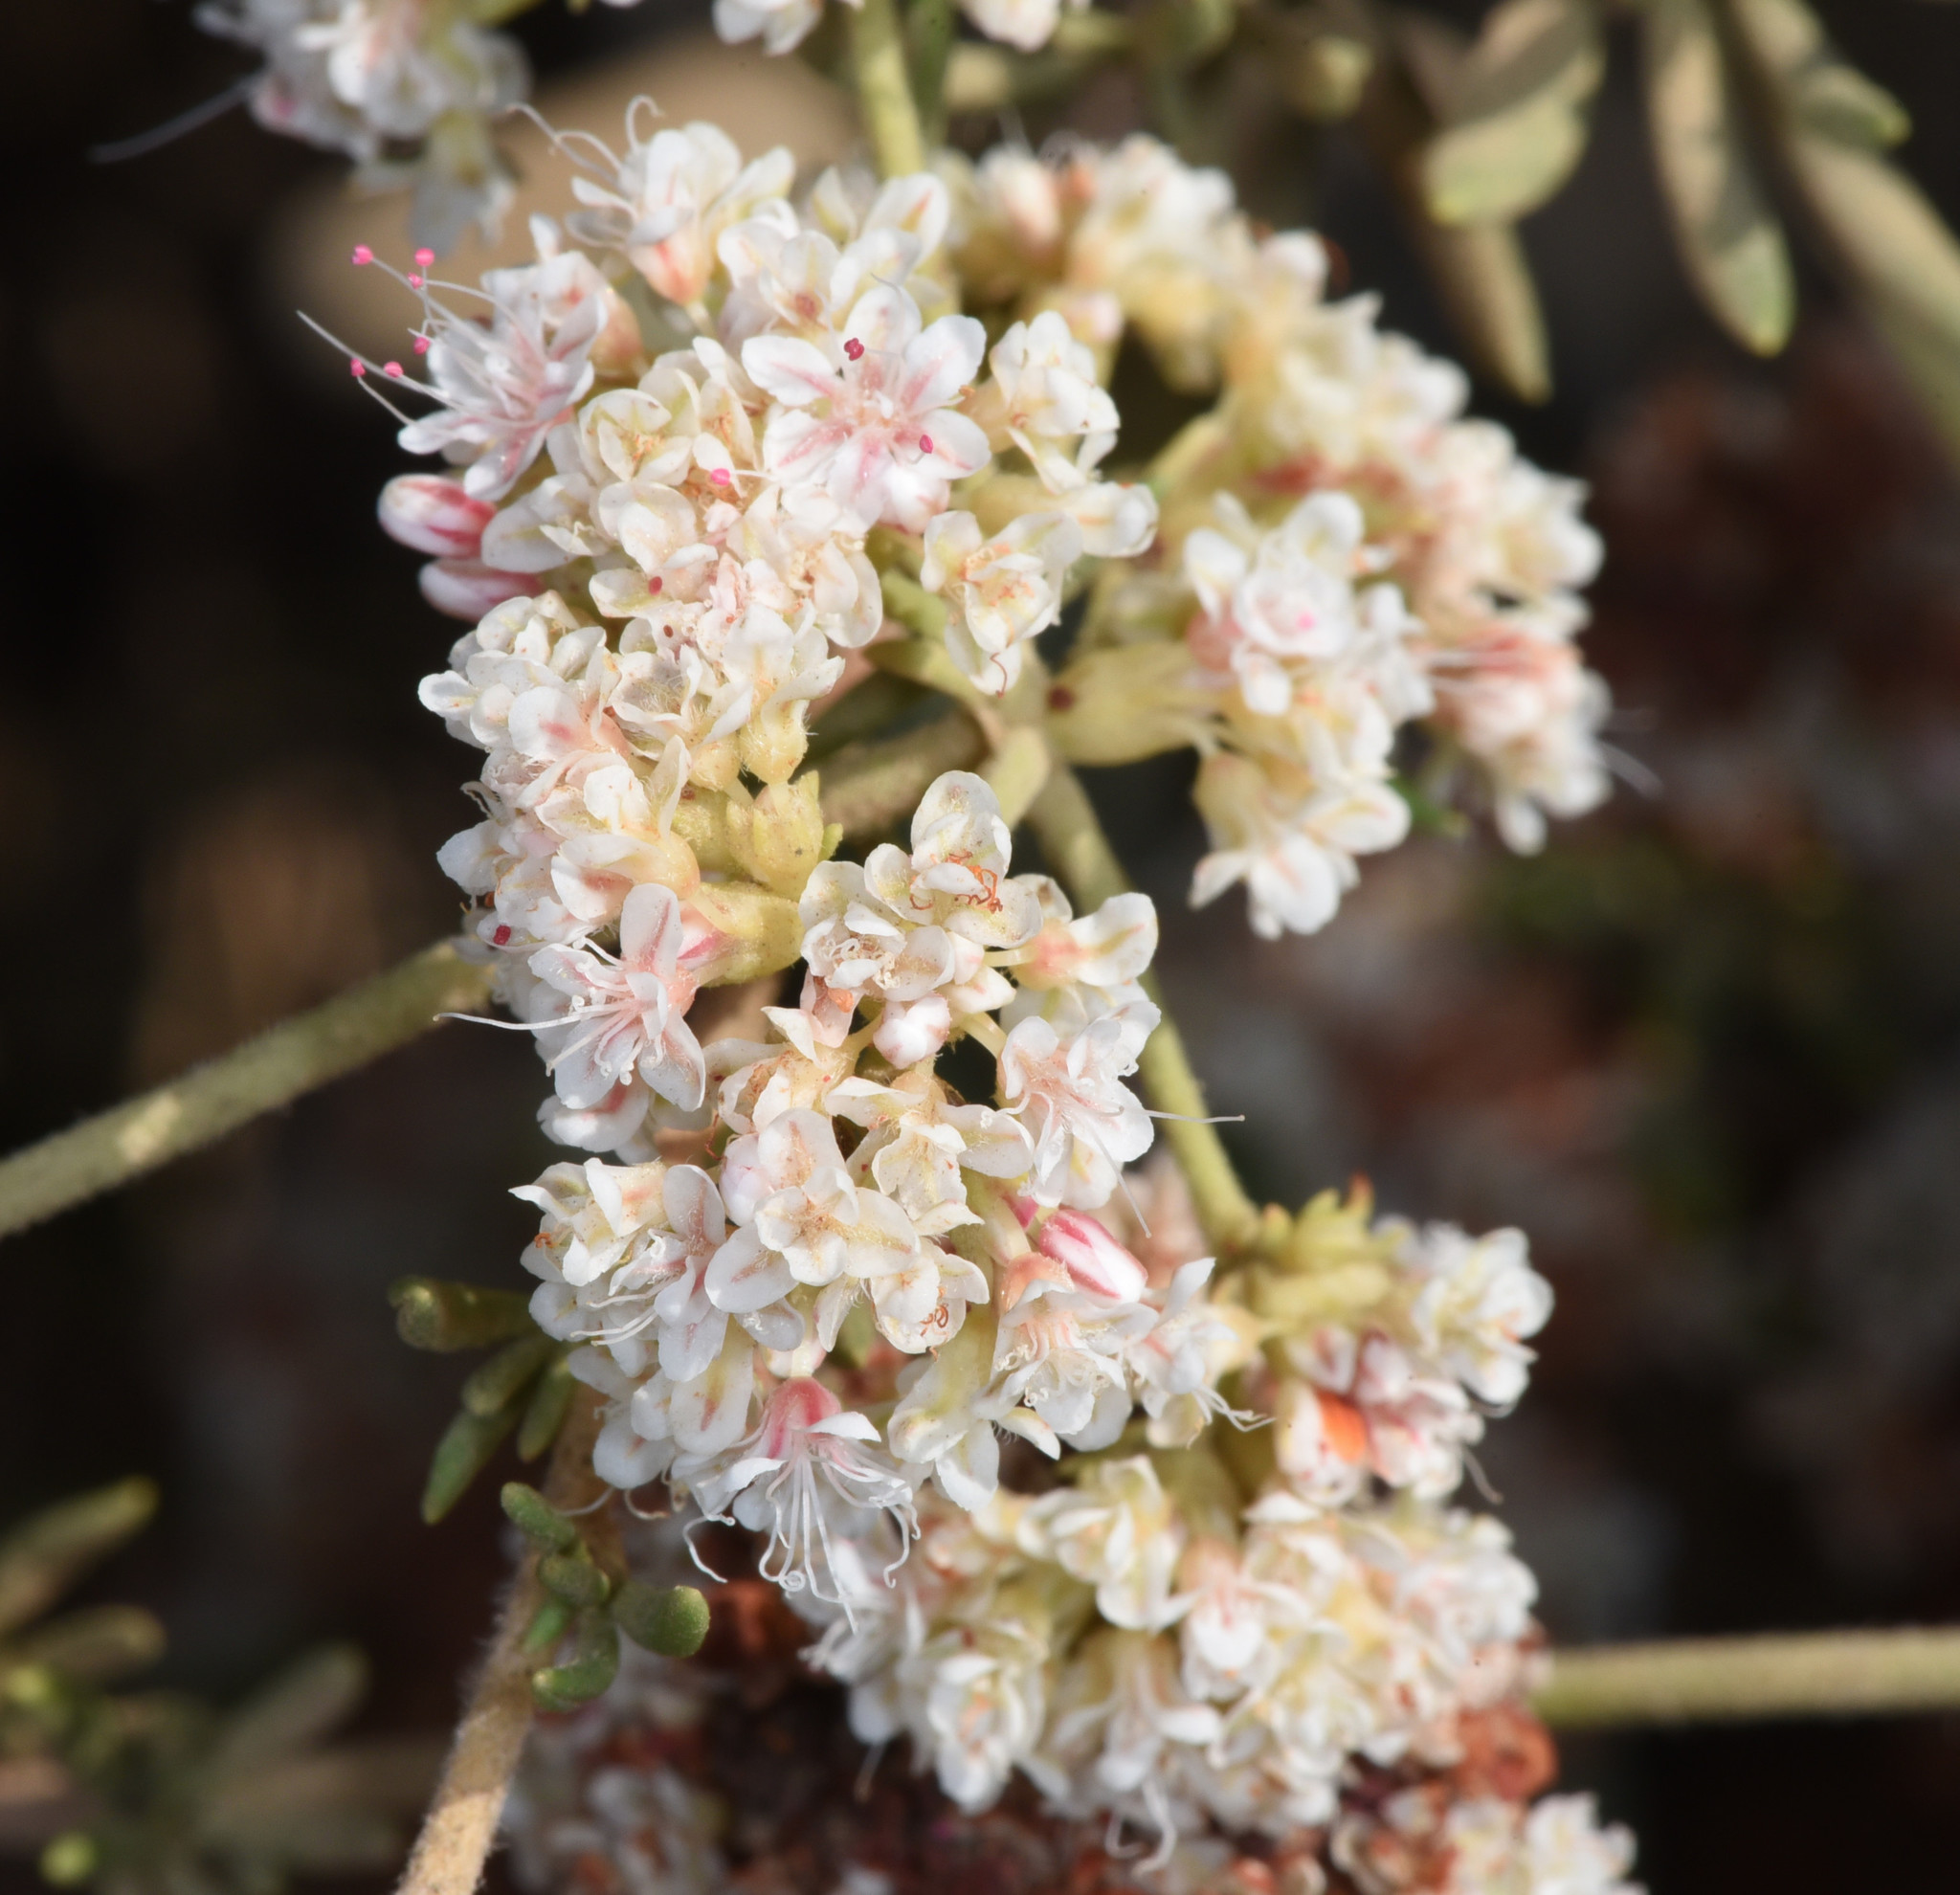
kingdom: Plantae
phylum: Tracheophyta
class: Magnoliopsida
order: Caryophyllales
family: Polygonaceae
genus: Eriogonum
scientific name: Eriogonum fasciculatum
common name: California wild buckwheat
